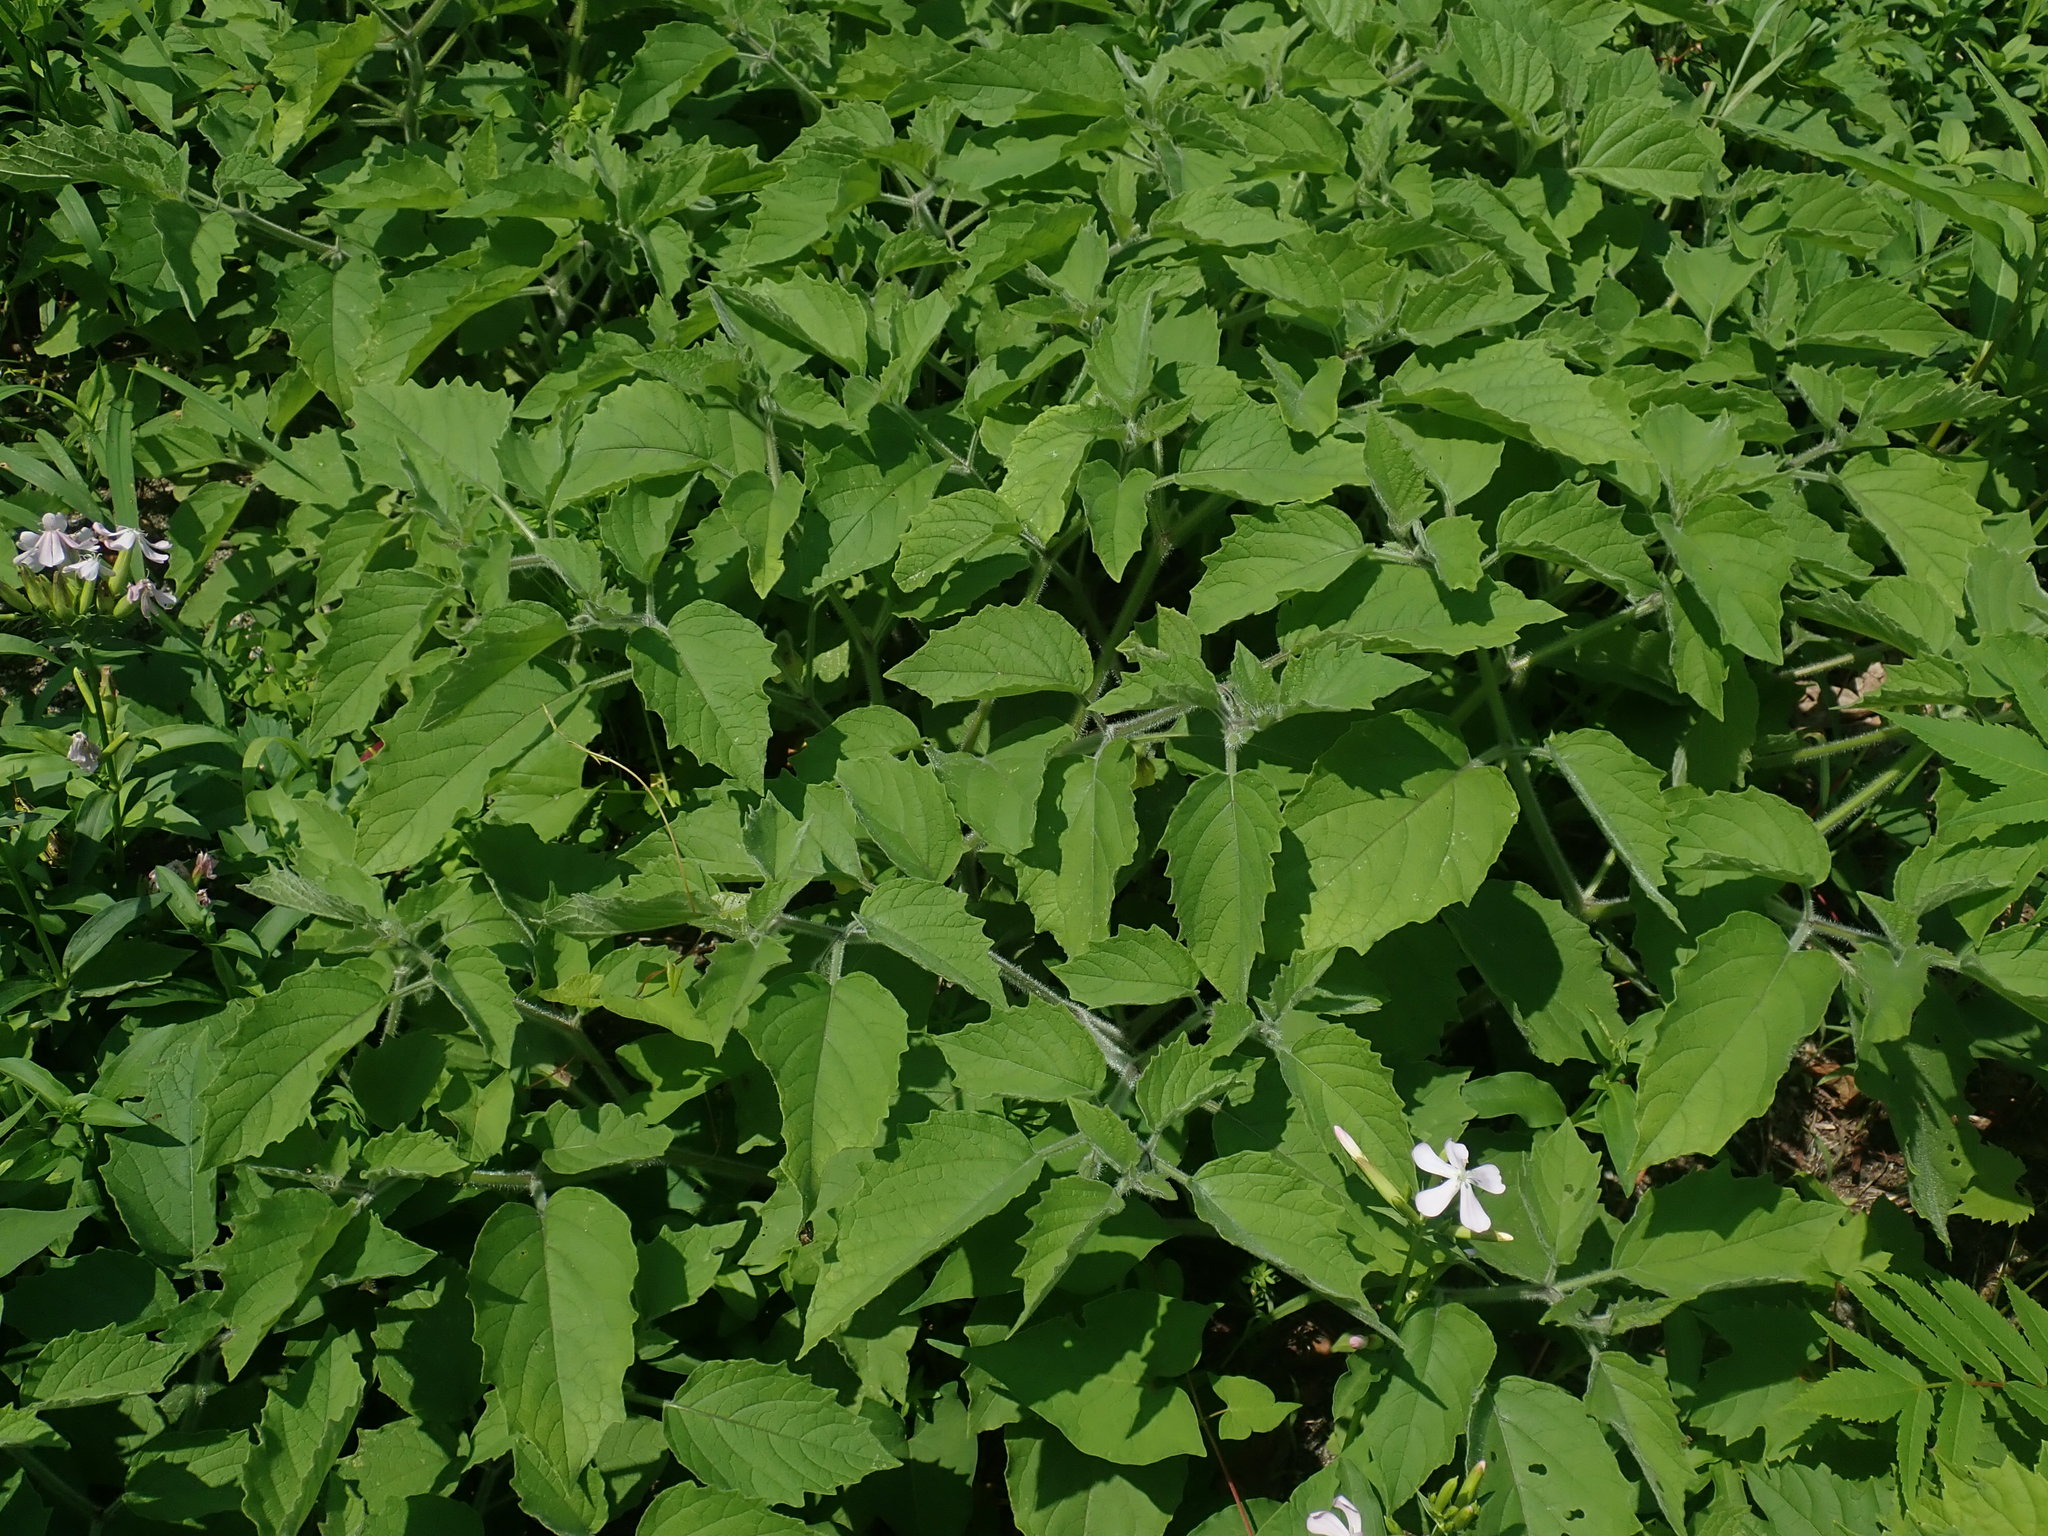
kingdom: Plantae
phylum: Tracheophyta
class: Magnoliopsida
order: Solanales
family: Solanaceae
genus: Physalis
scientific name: Physalis heterophylla
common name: Clammy ground-cherry
